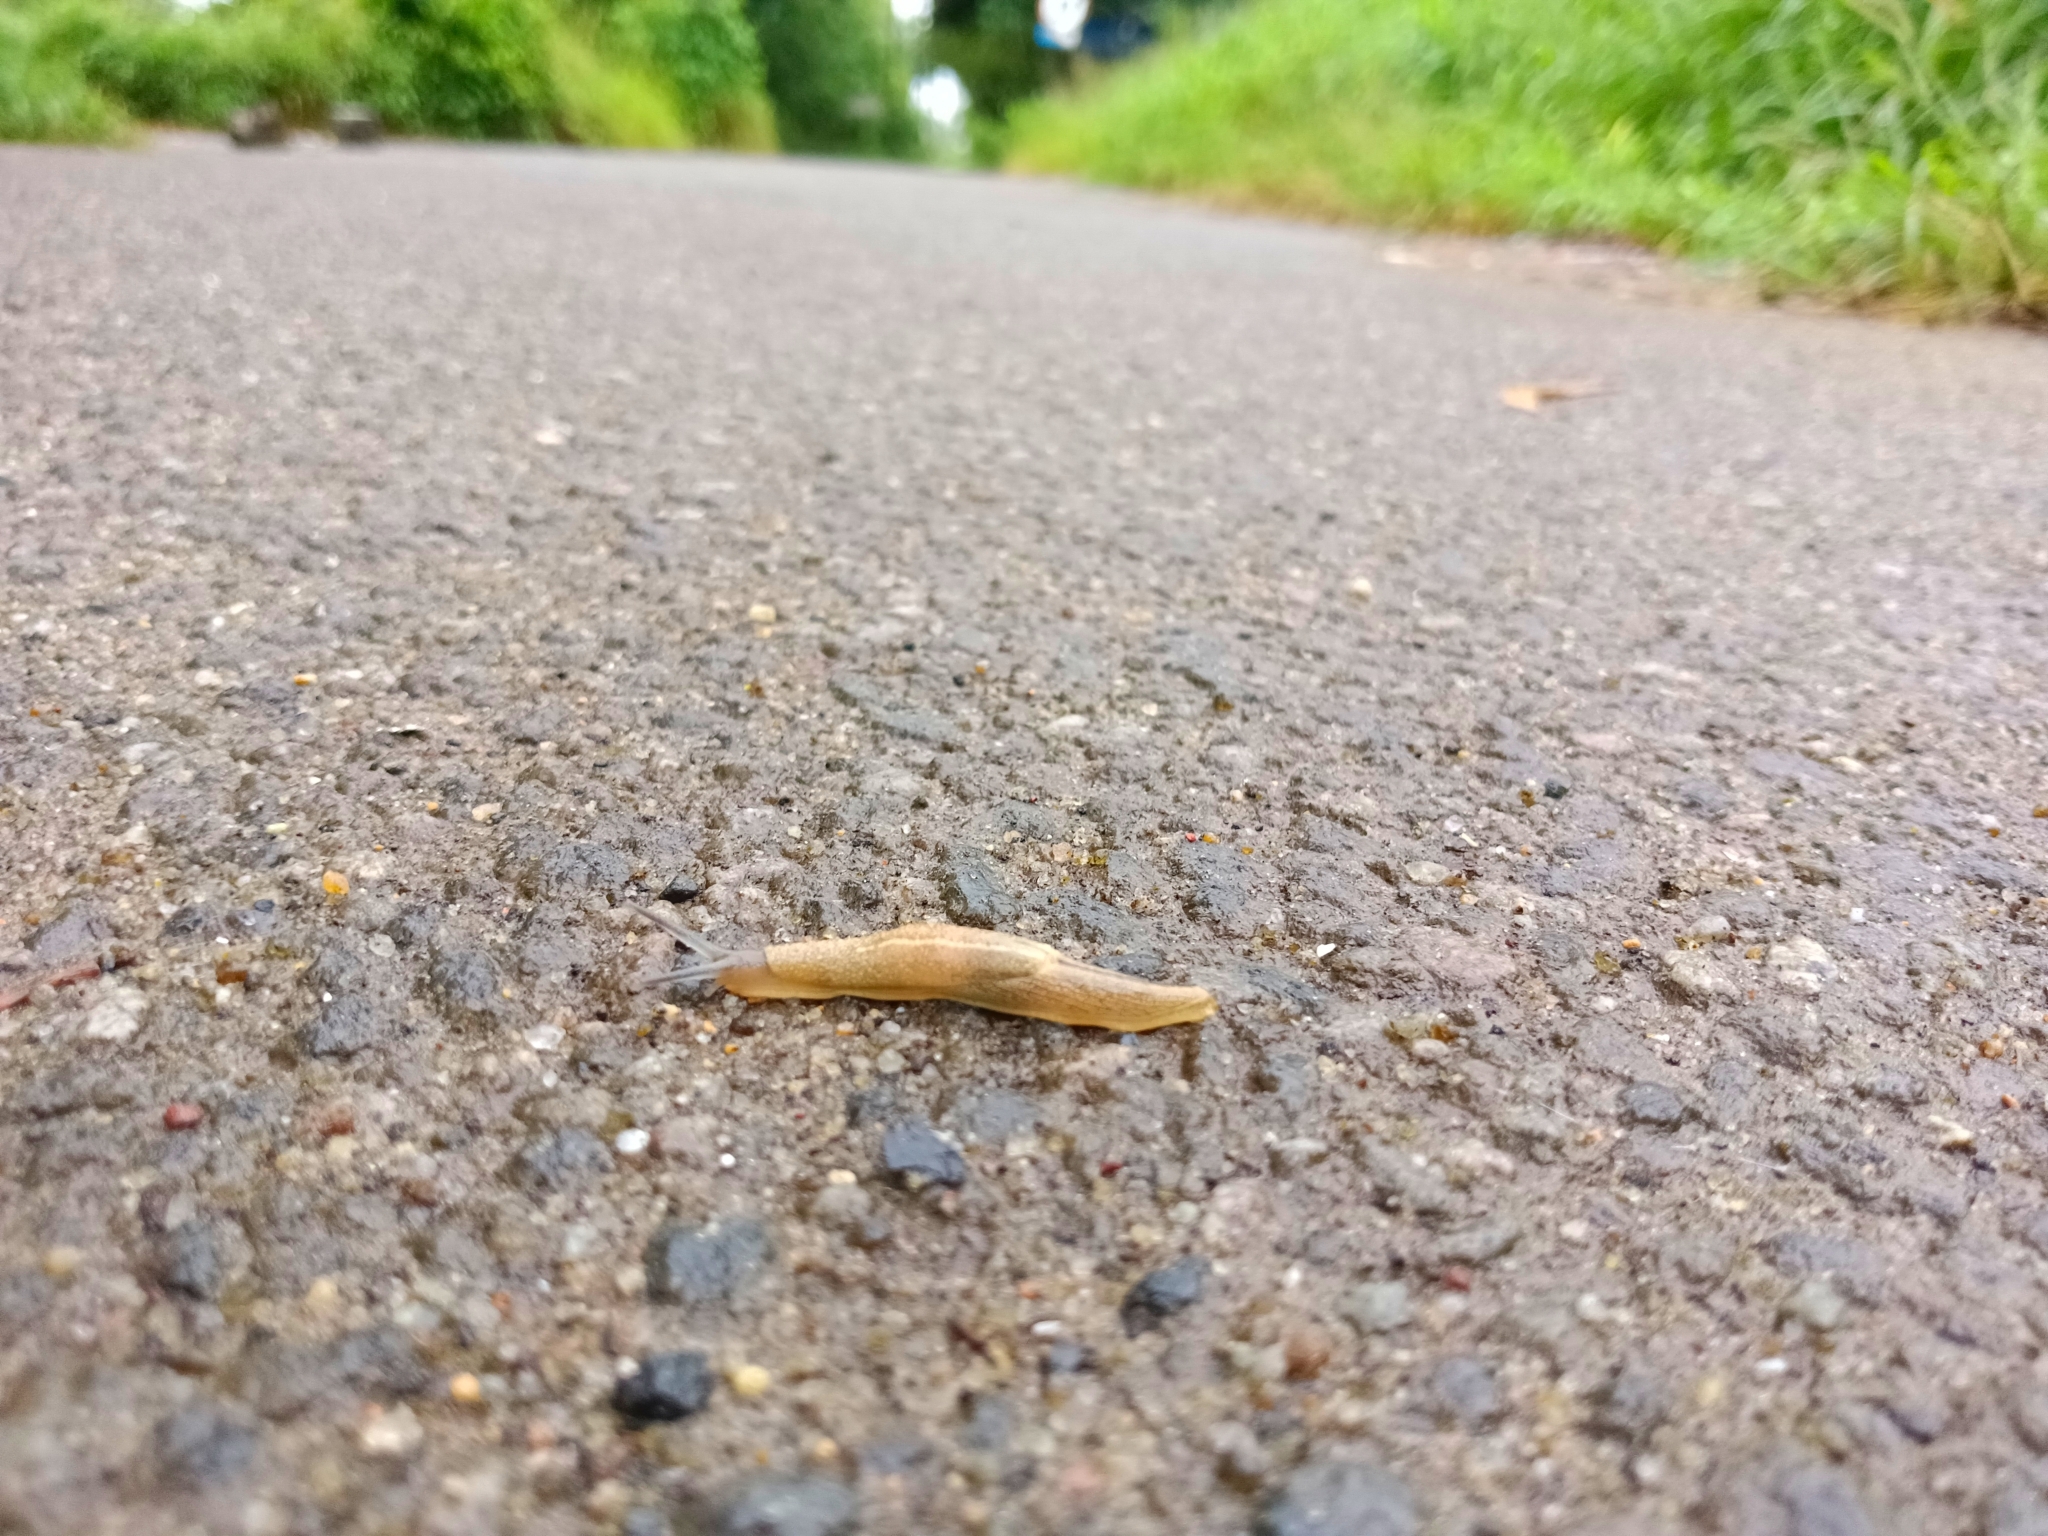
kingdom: Animalia
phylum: Mollusca
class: Gastropoda
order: Stylommatophora
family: Ariophantidae
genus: Mariaella
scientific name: Mariaella dussumieri
